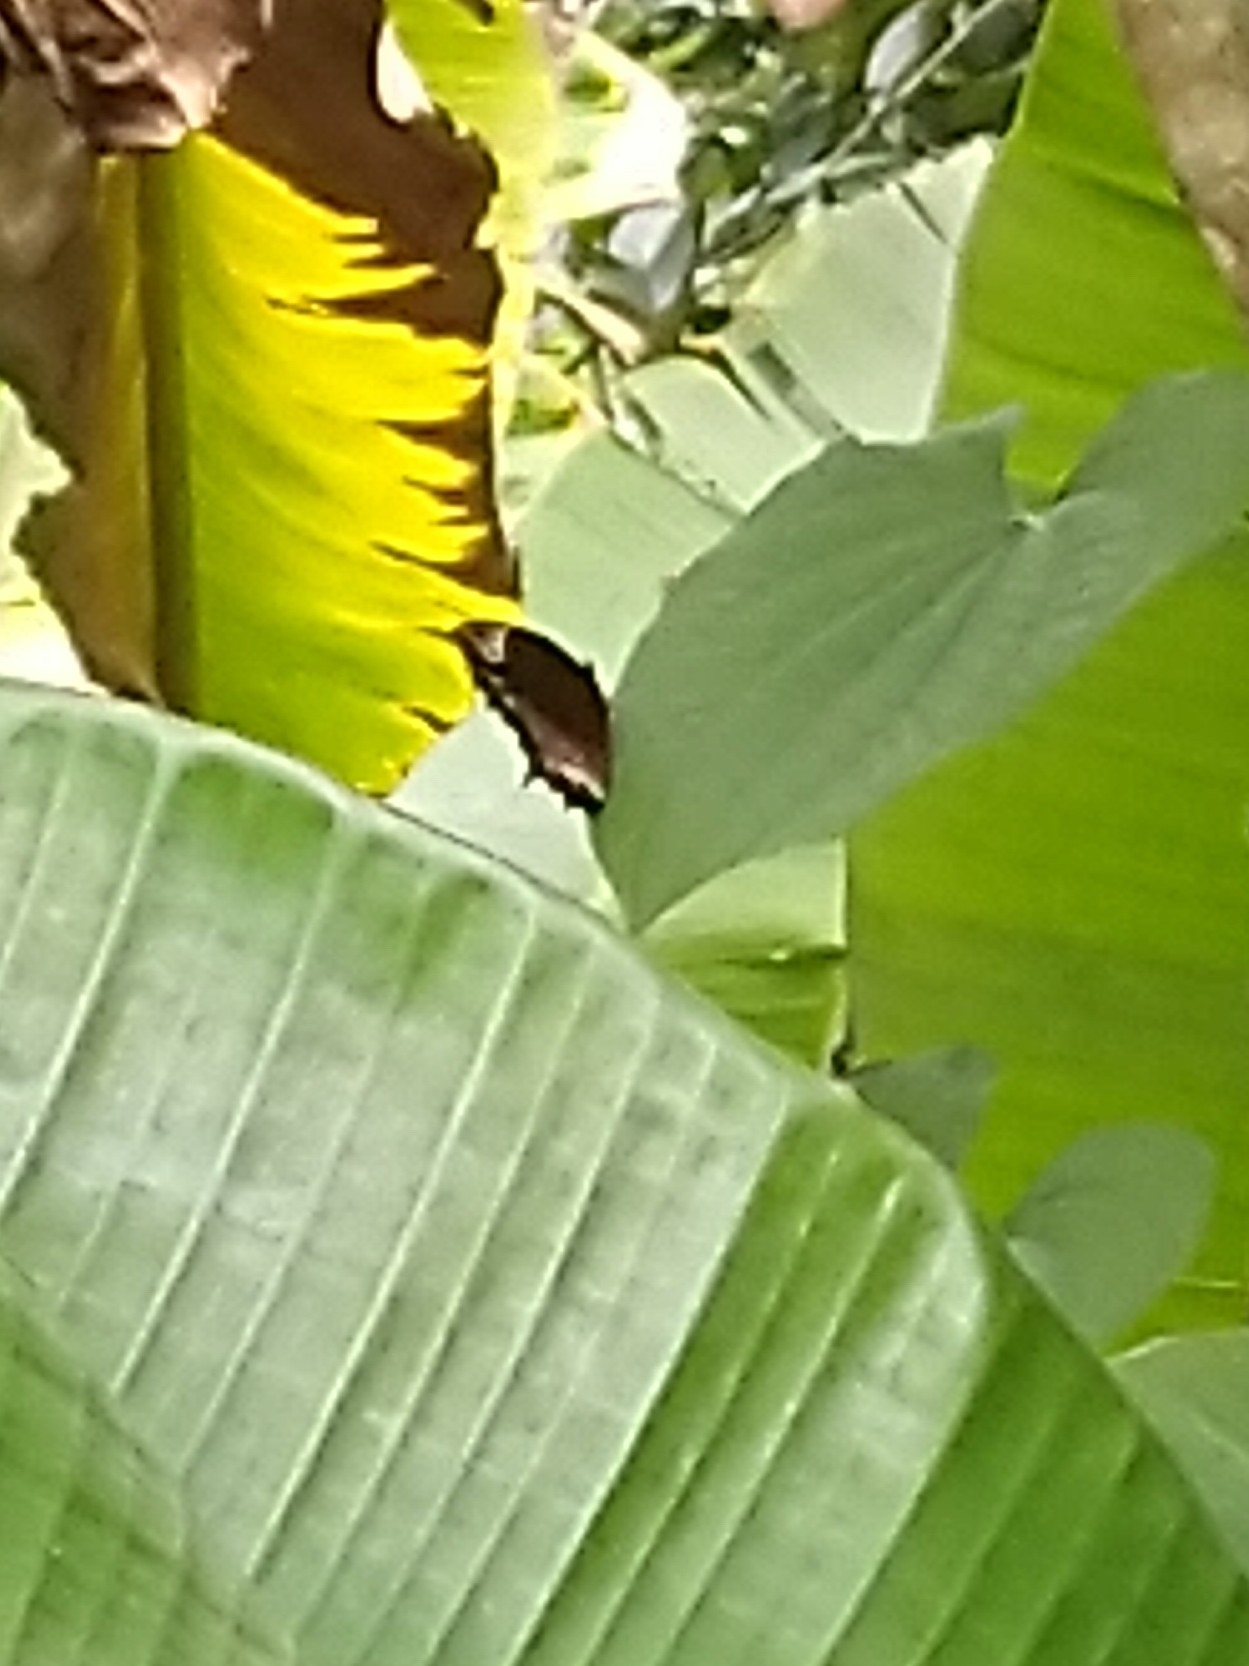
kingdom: Animalia
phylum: Arthropoda
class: Insecta
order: Lepidoptera
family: Nymphalidae
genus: Elymnias
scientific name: Elymnias caudata
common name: Tailed palmfly
